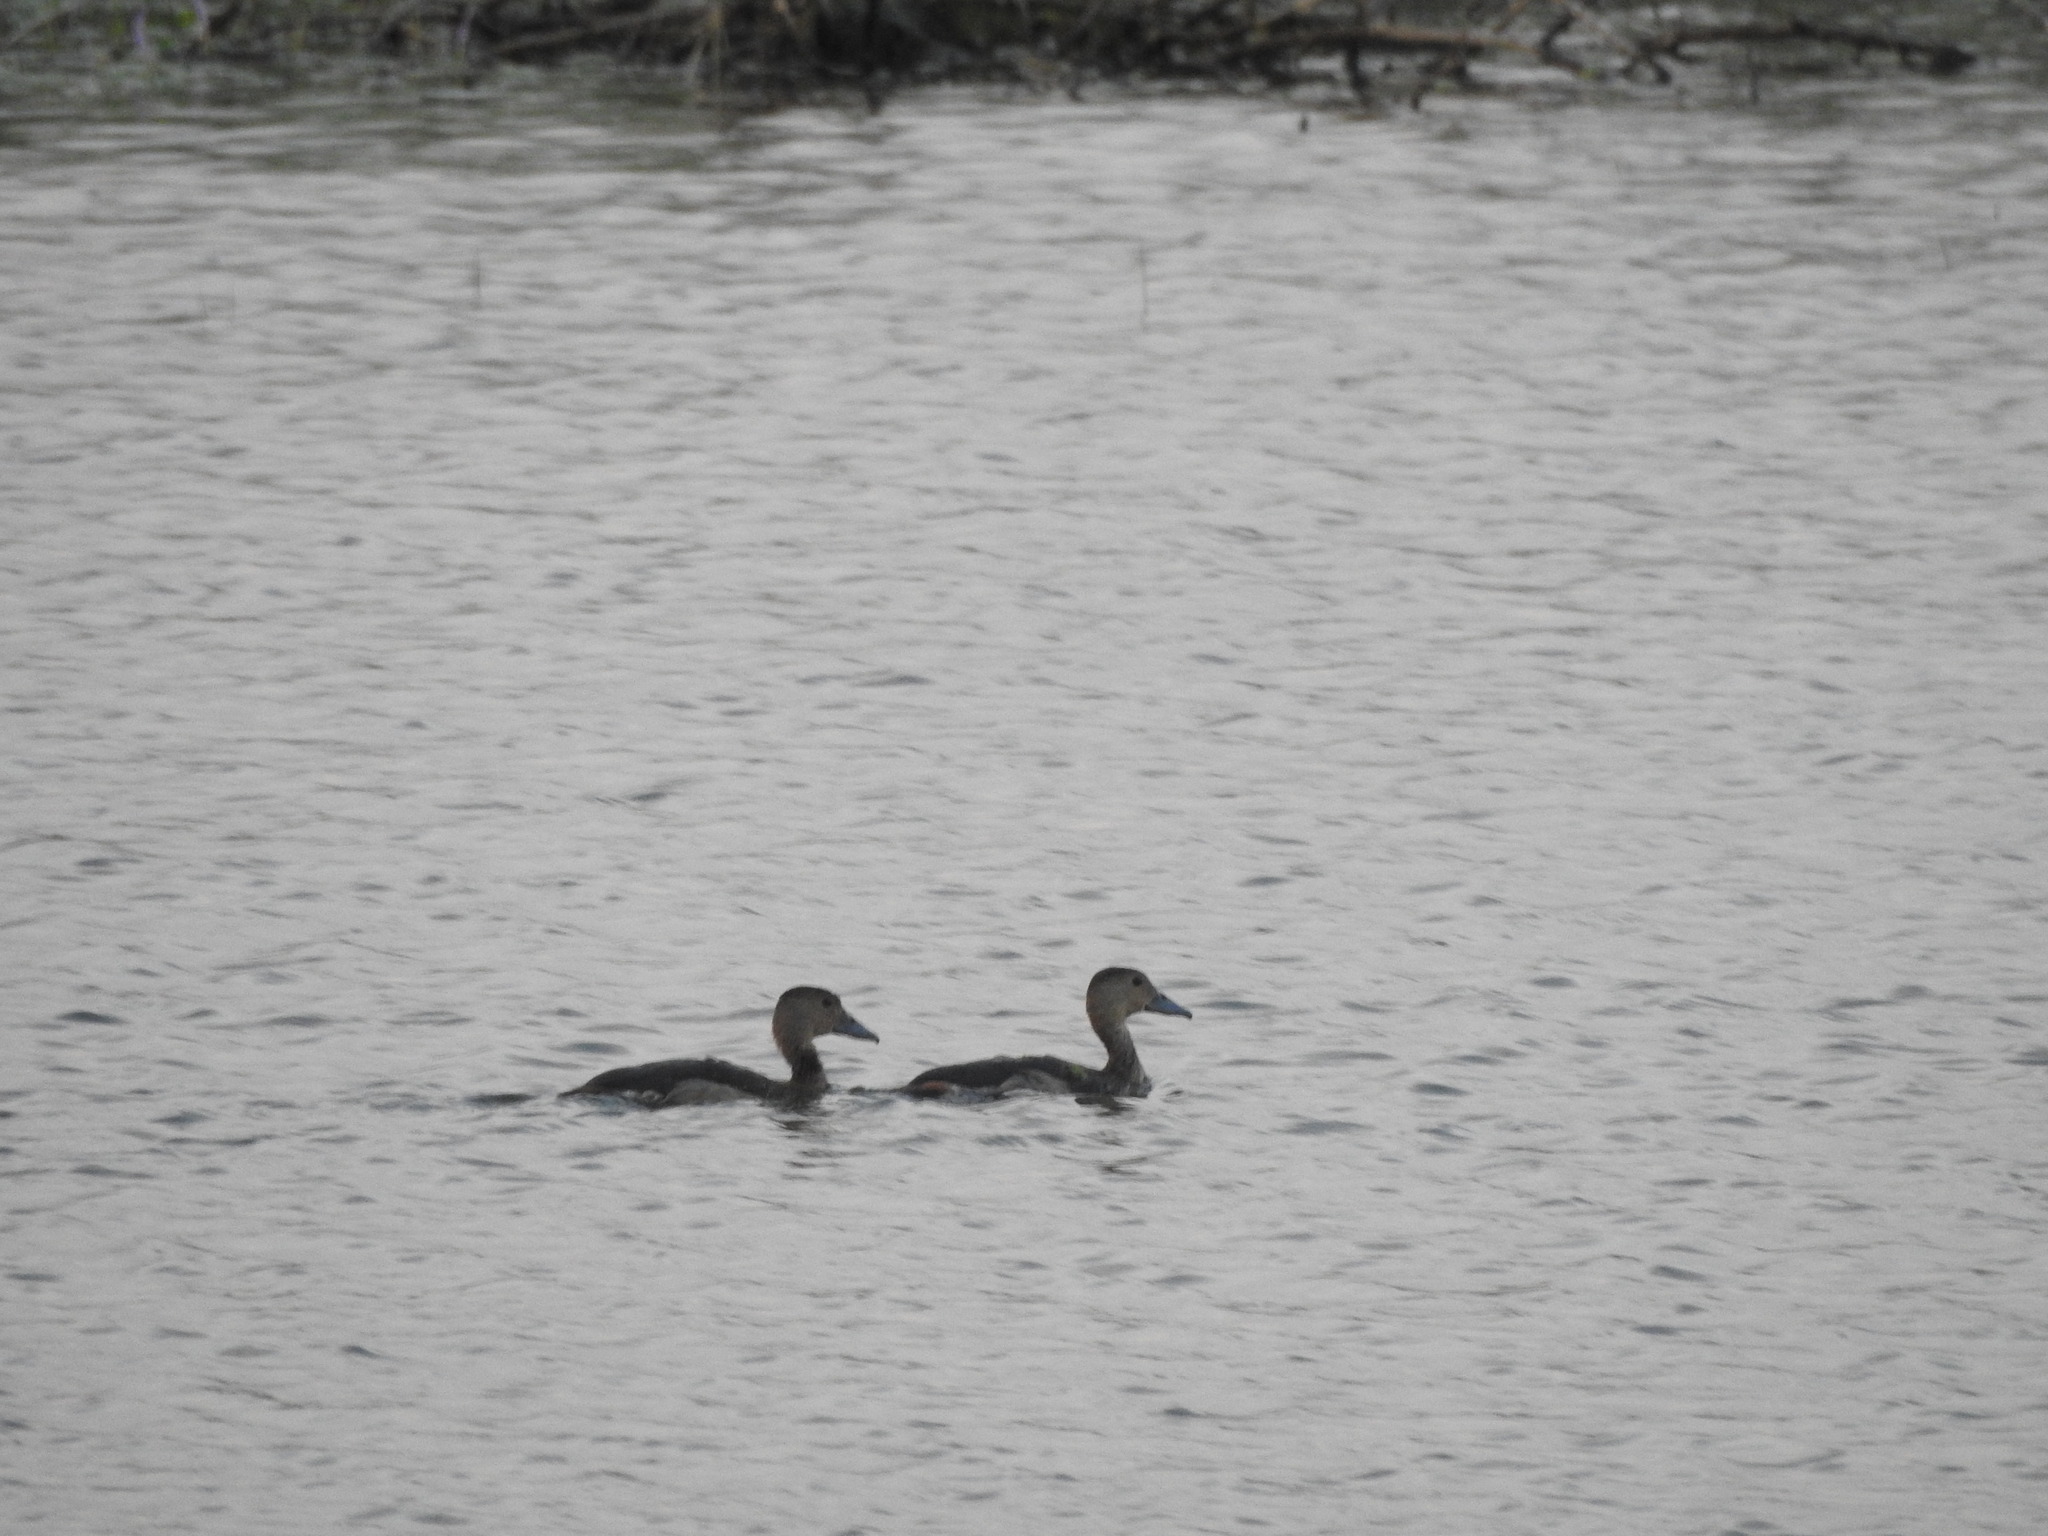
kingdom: Animalia
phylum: Chordata
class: Aves
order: Anseriformes
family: Anatidae
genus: Dendrocygna
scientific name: Dendrocygna javanica
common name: Lesser whistling-duck
